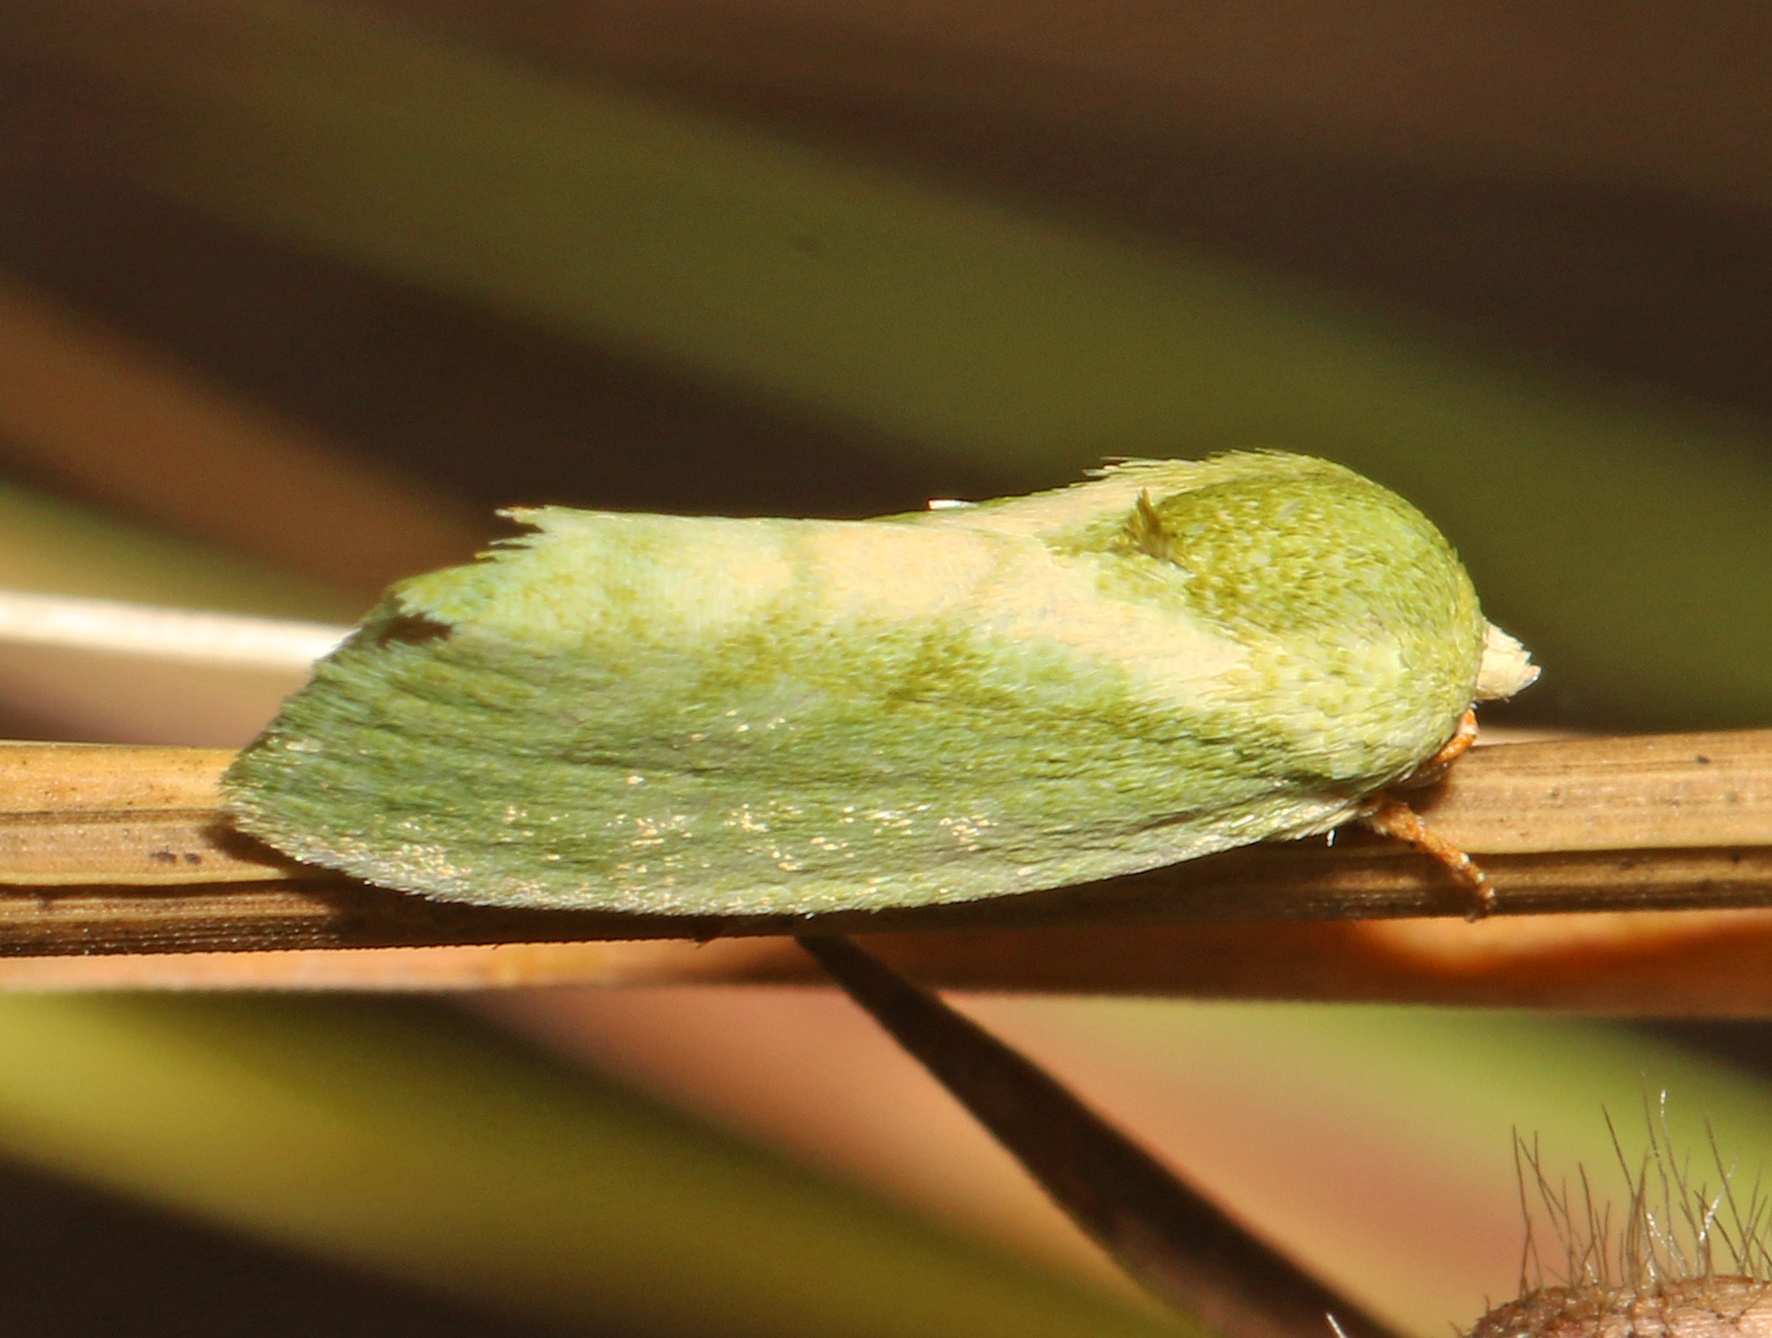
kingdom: Animalia
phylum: Arthropoda
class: Insecta
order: Lepidoptera
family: Nolidae
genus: Earias
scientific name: Earias insulana
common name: Egyptian bollworm
